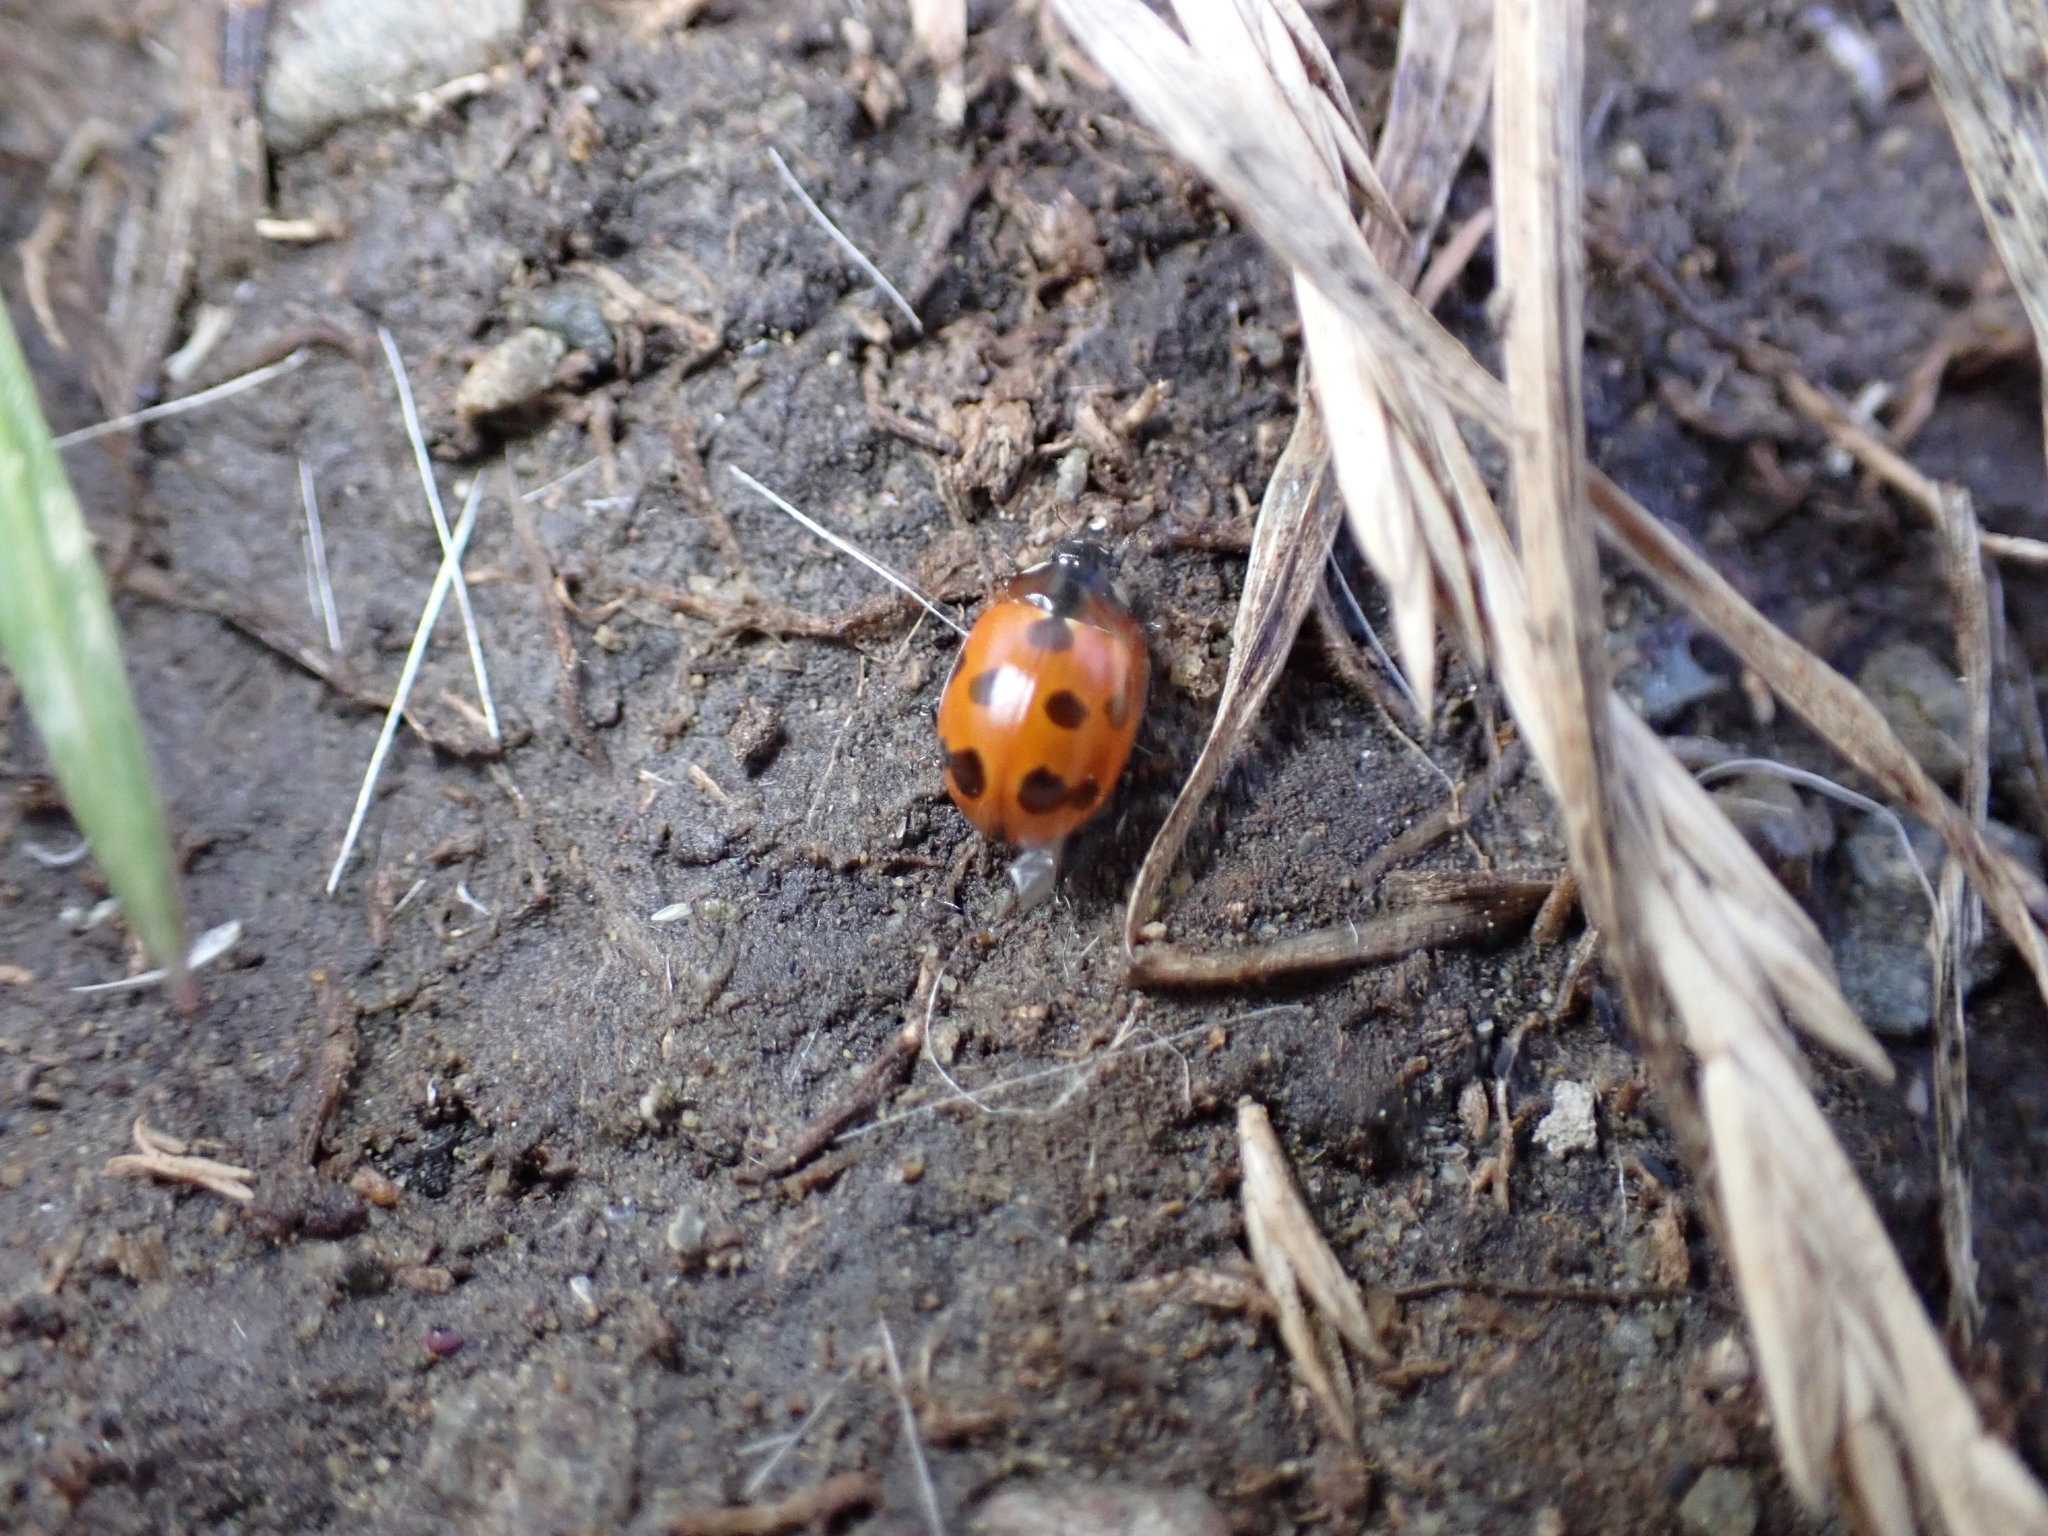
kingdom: Animalia
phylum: Arthropoda
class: Insecta
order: Coleoptera
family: Coccinellidae
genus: Coccinella
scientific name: Coccinella undecimpunctata
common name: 11-spot ladybird
